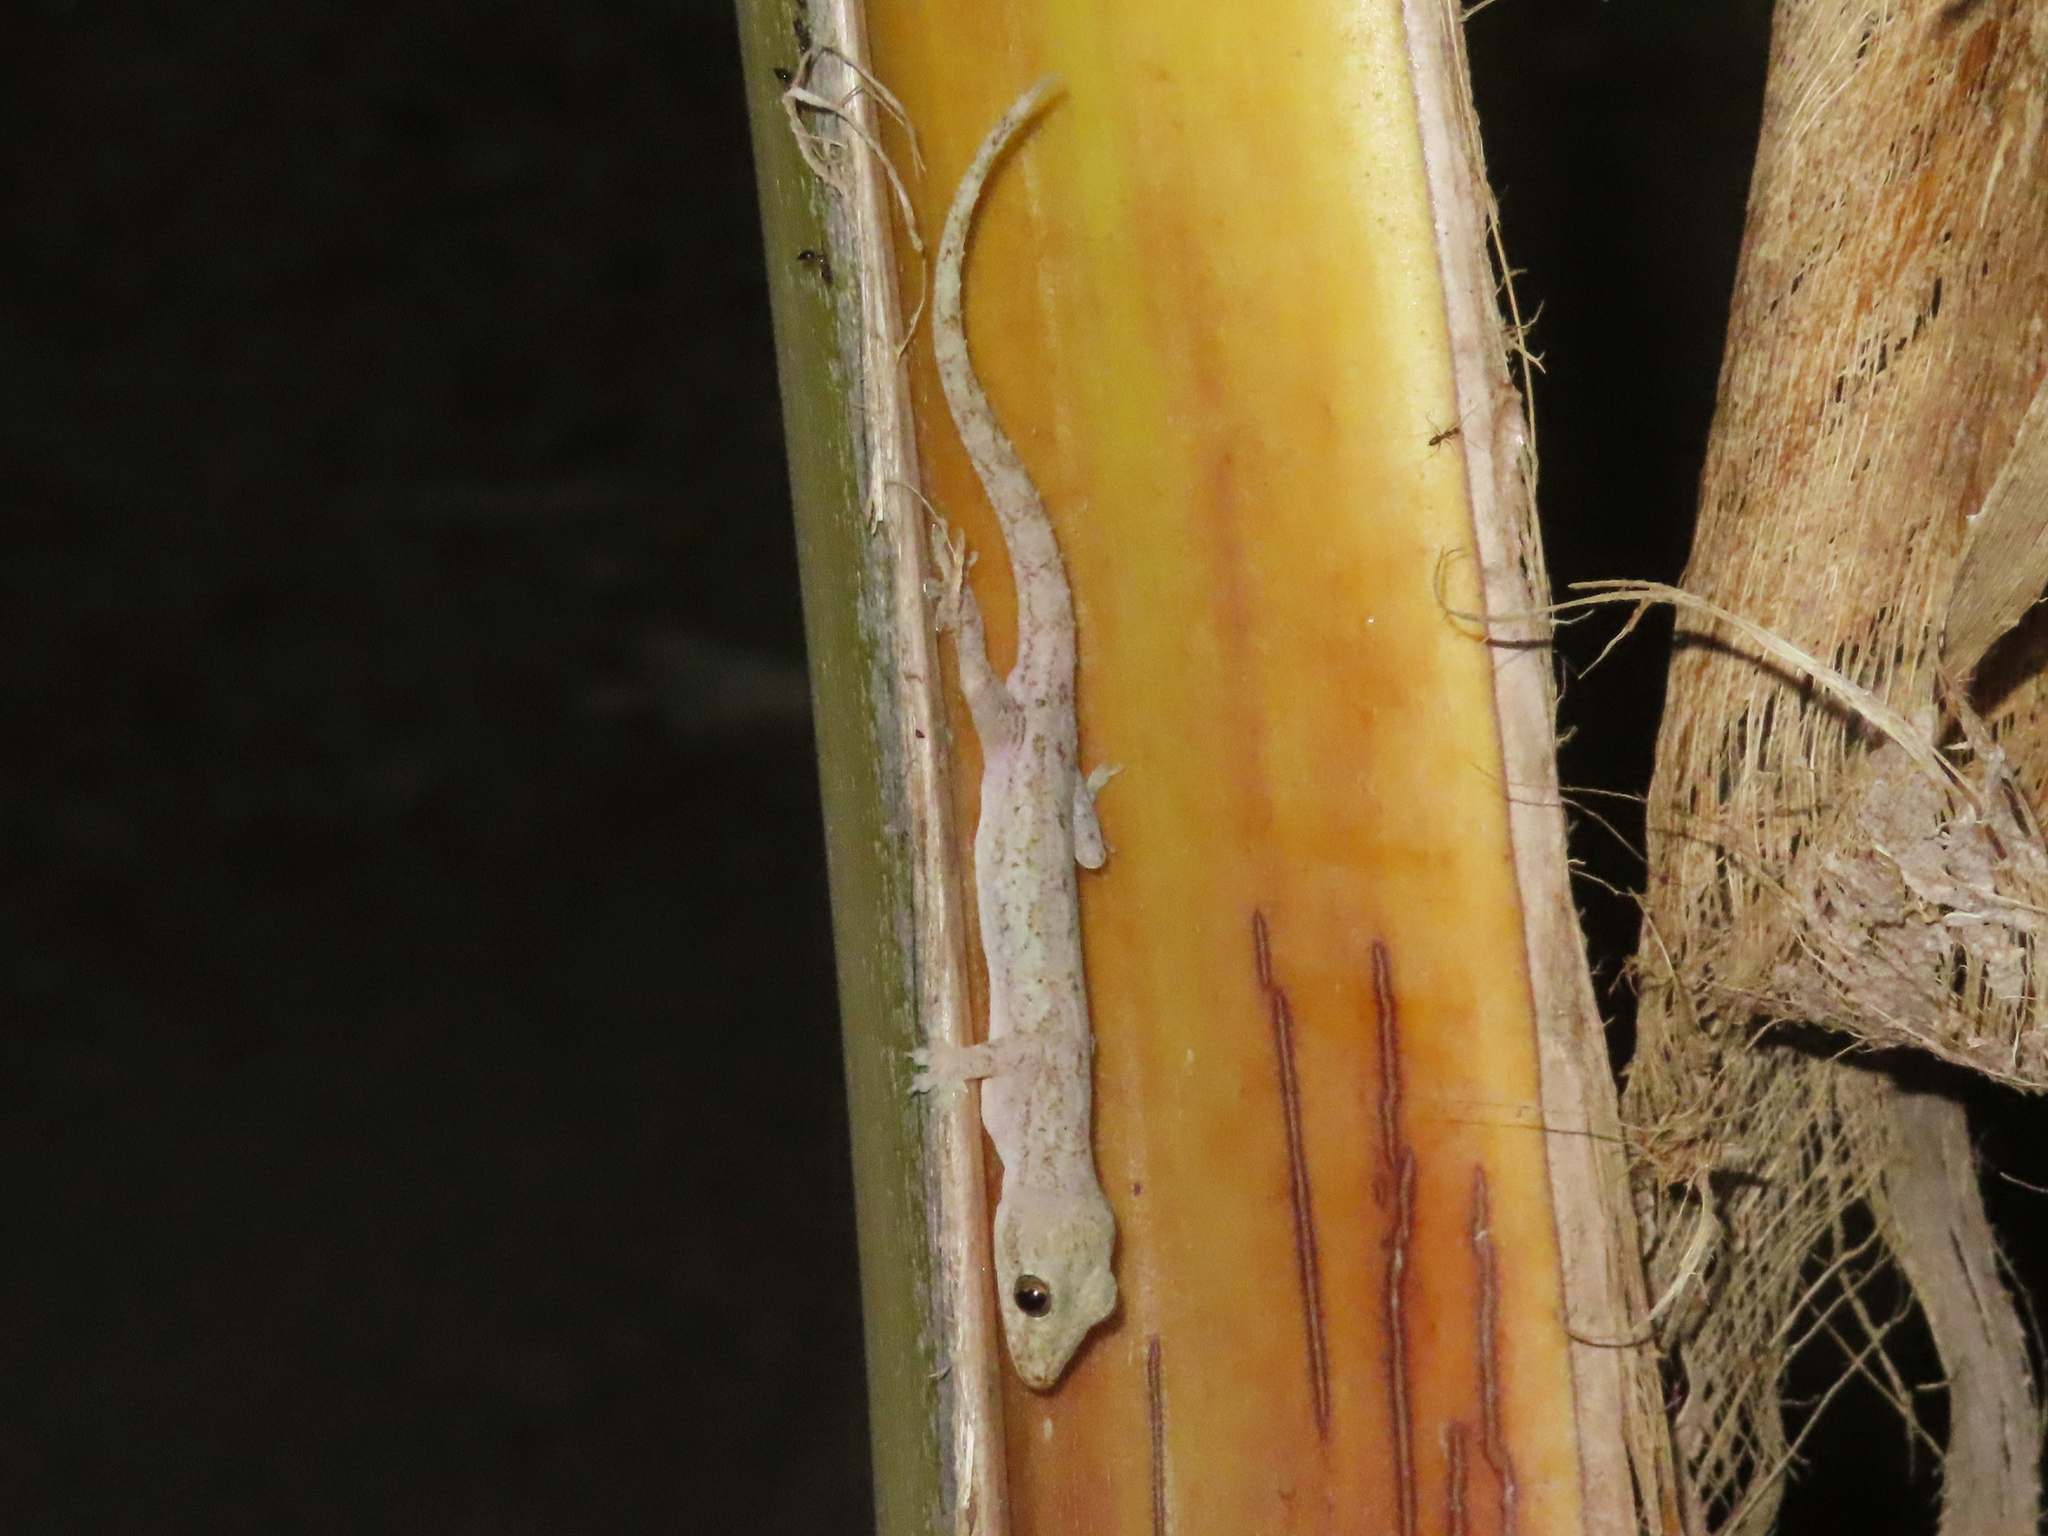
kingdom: Animalia
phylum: Chordata
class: Squamata
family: Gekkonidae
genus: Hemidactylus
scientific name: Hemidactylus frenatus
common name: Common house gecko
